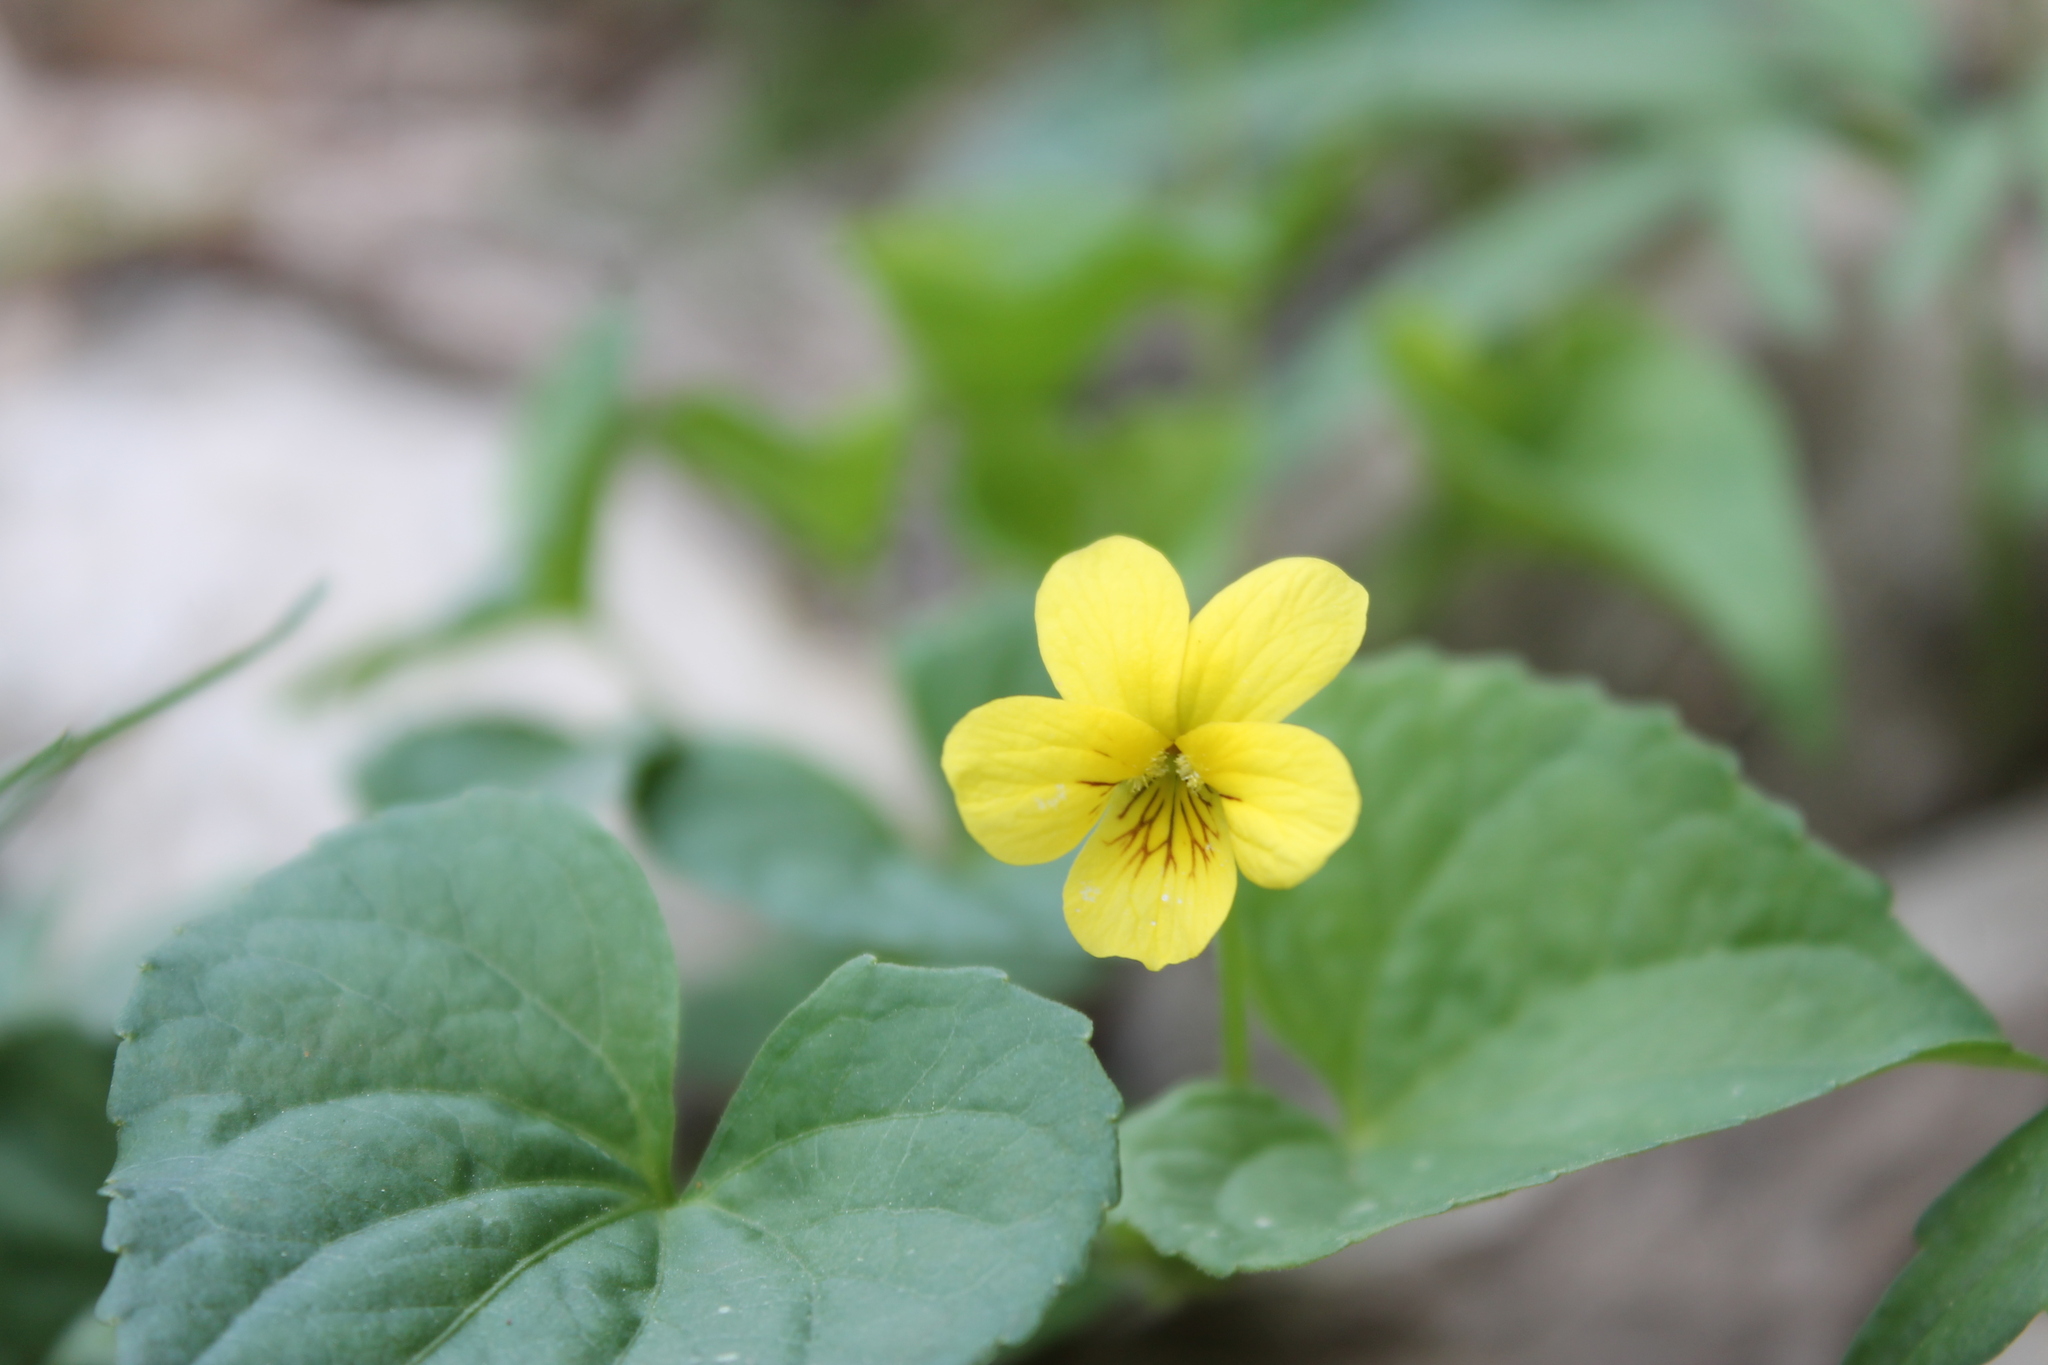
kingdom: Plantae
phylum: Tracheophyta
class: Magnoliopsida
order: Malpighiales
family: Violaceae
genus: Viola
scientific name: Viola eriocarpa
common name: Smooth yellow violet
